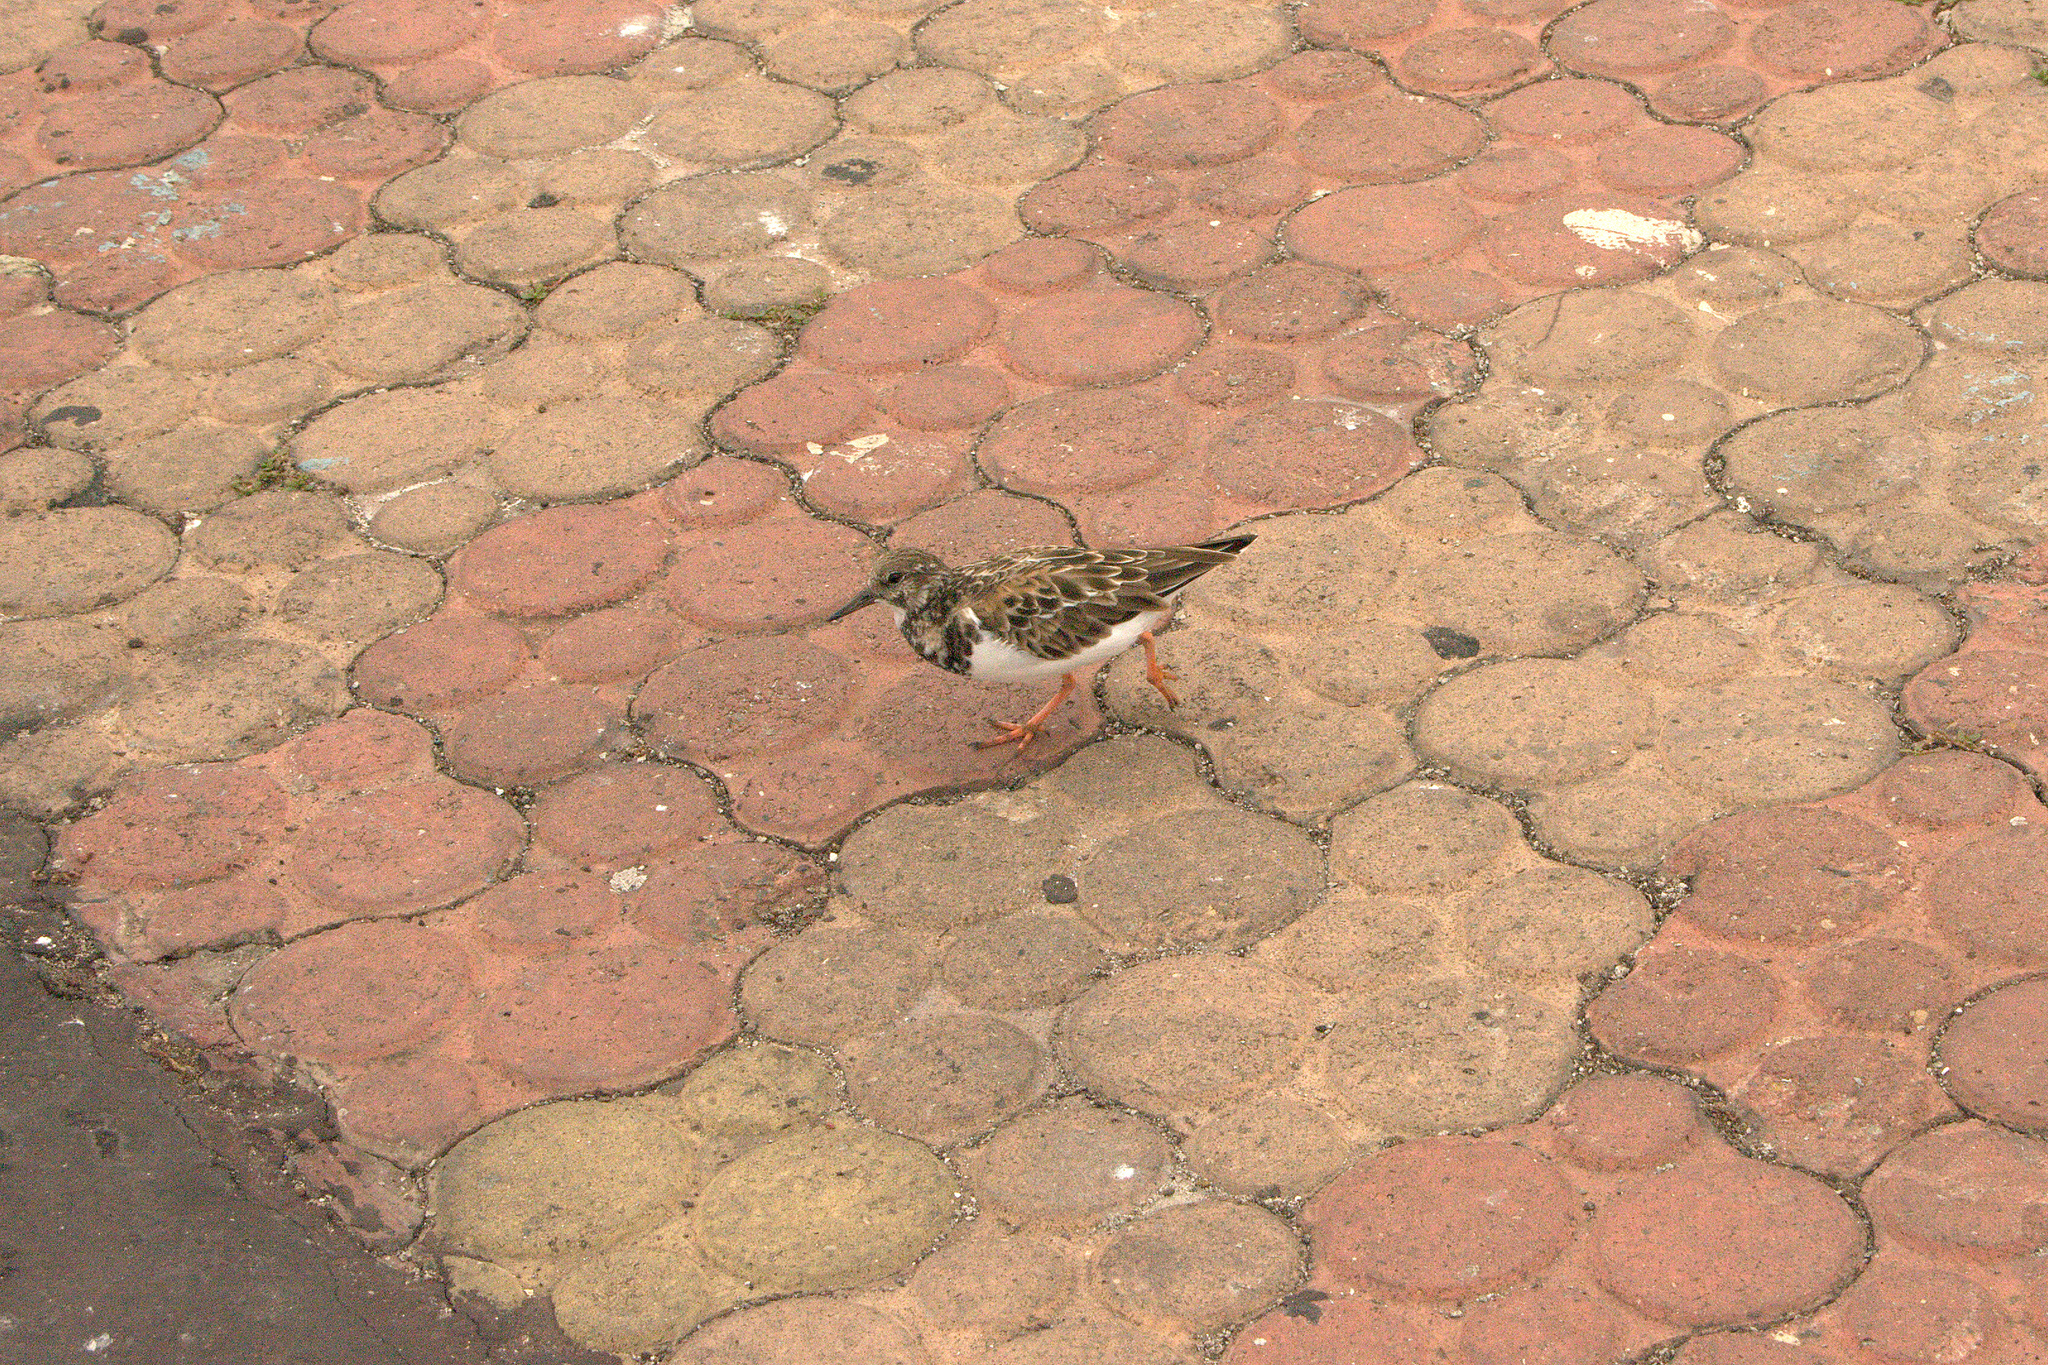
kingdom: Animalia
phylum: Chordata
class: Aves
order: Charadriiformes
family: Scolopacidae
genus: Arenaria
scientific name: Arenaria interpres
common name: Ruddy turnstone
